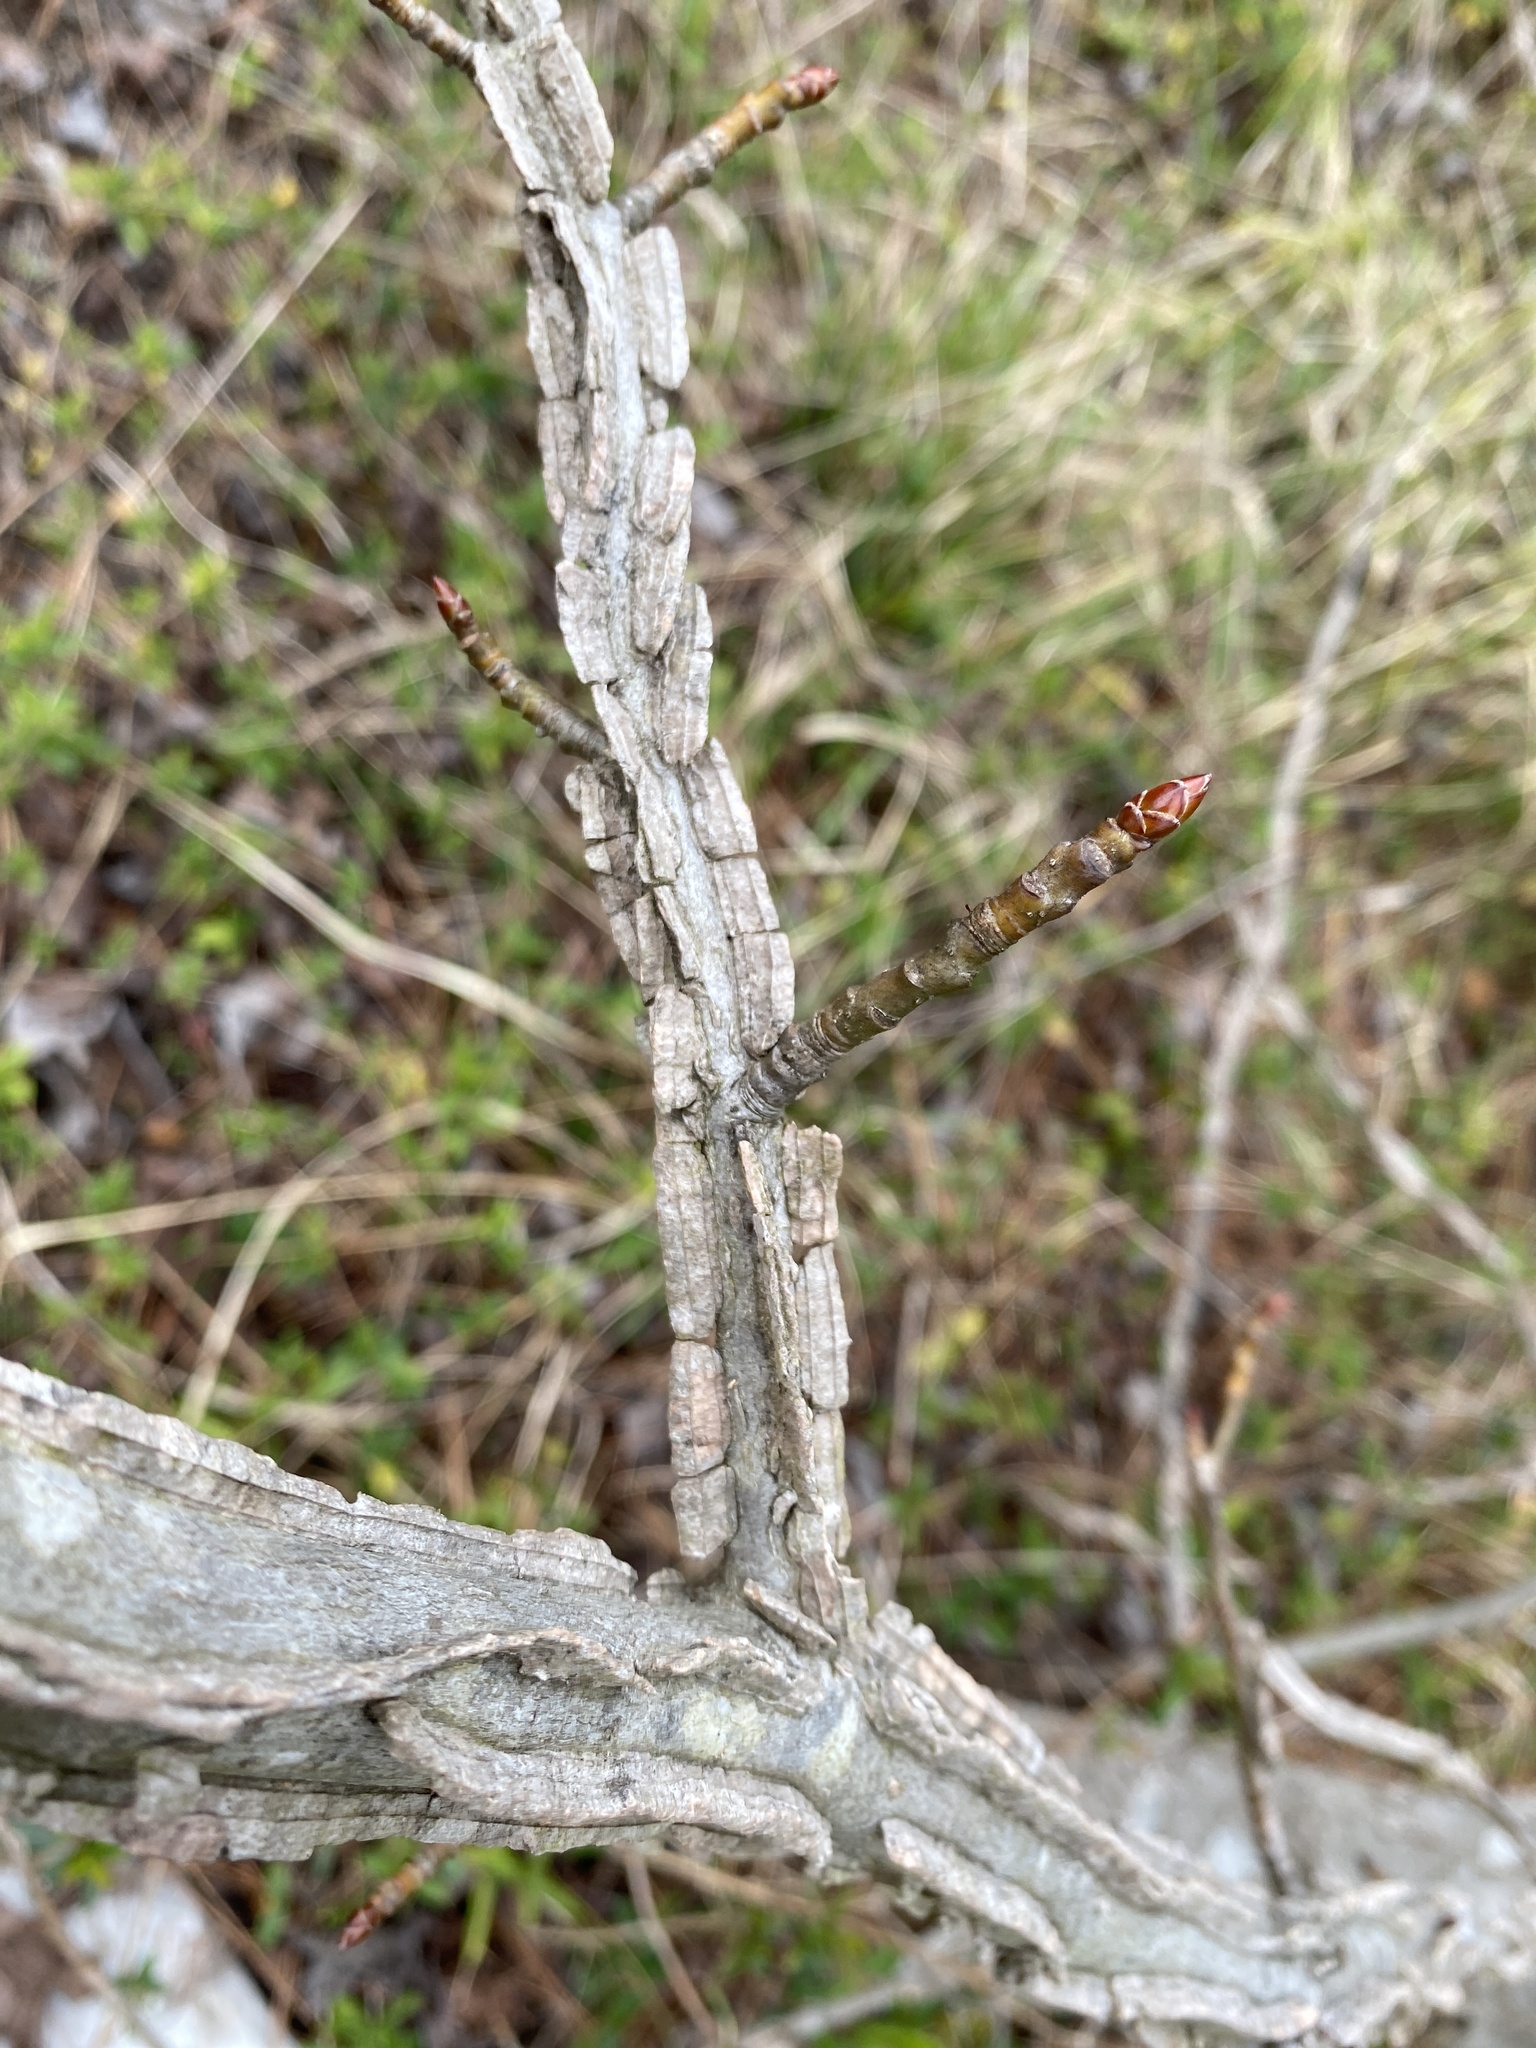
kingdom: Plantae
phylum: Tracheophyta
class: Magnoliopsida
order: Saxifragales
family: Altingiaceae
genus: Liquidambar
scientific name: Liquidambar styraciflua
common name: Sweet gum
